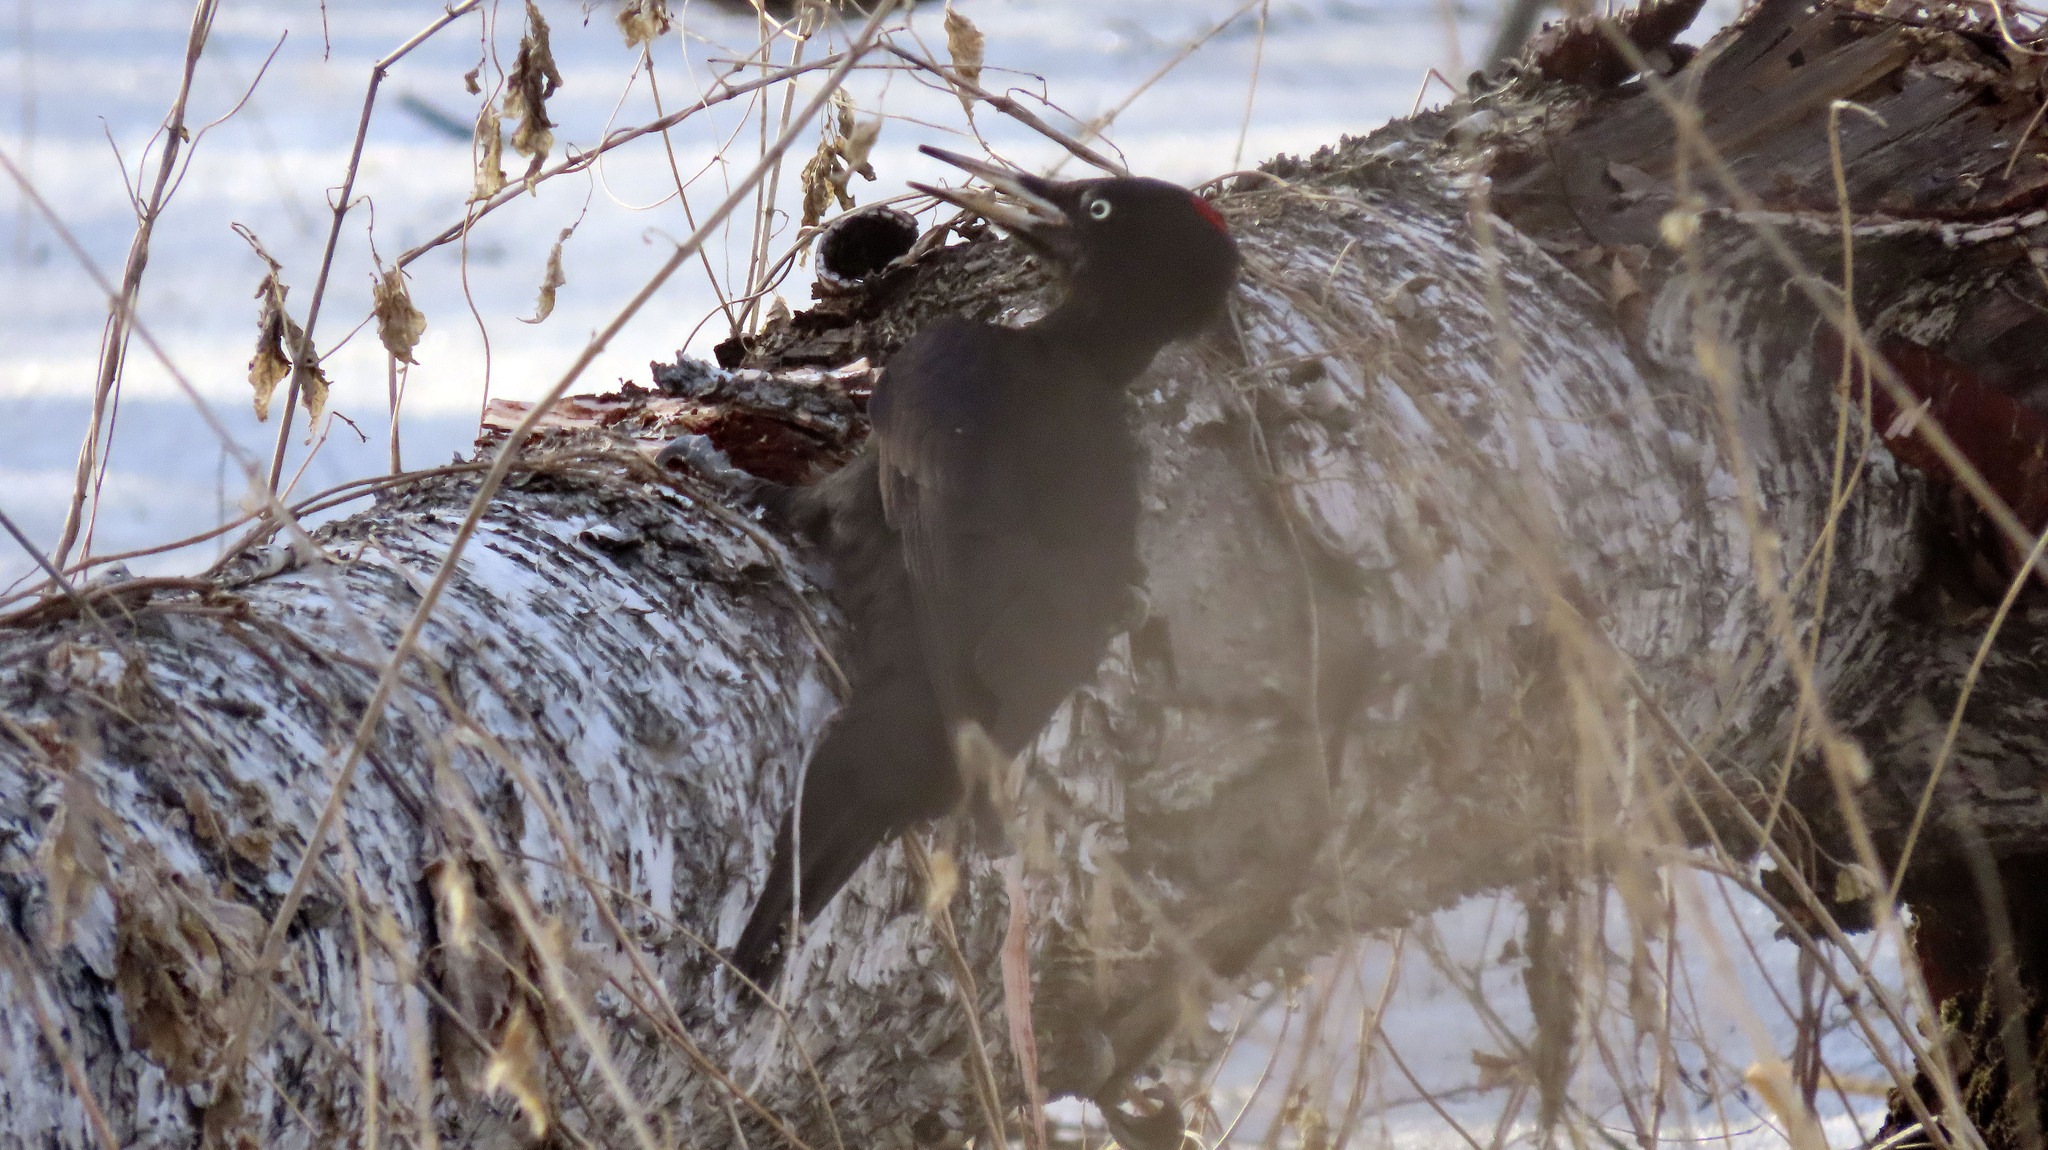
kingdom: Animalia
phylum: Chordata
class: Aves
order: Piciformes
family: Picidae
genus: Dryocopus
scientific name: Dryocopus martius
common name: Black woodpecker
